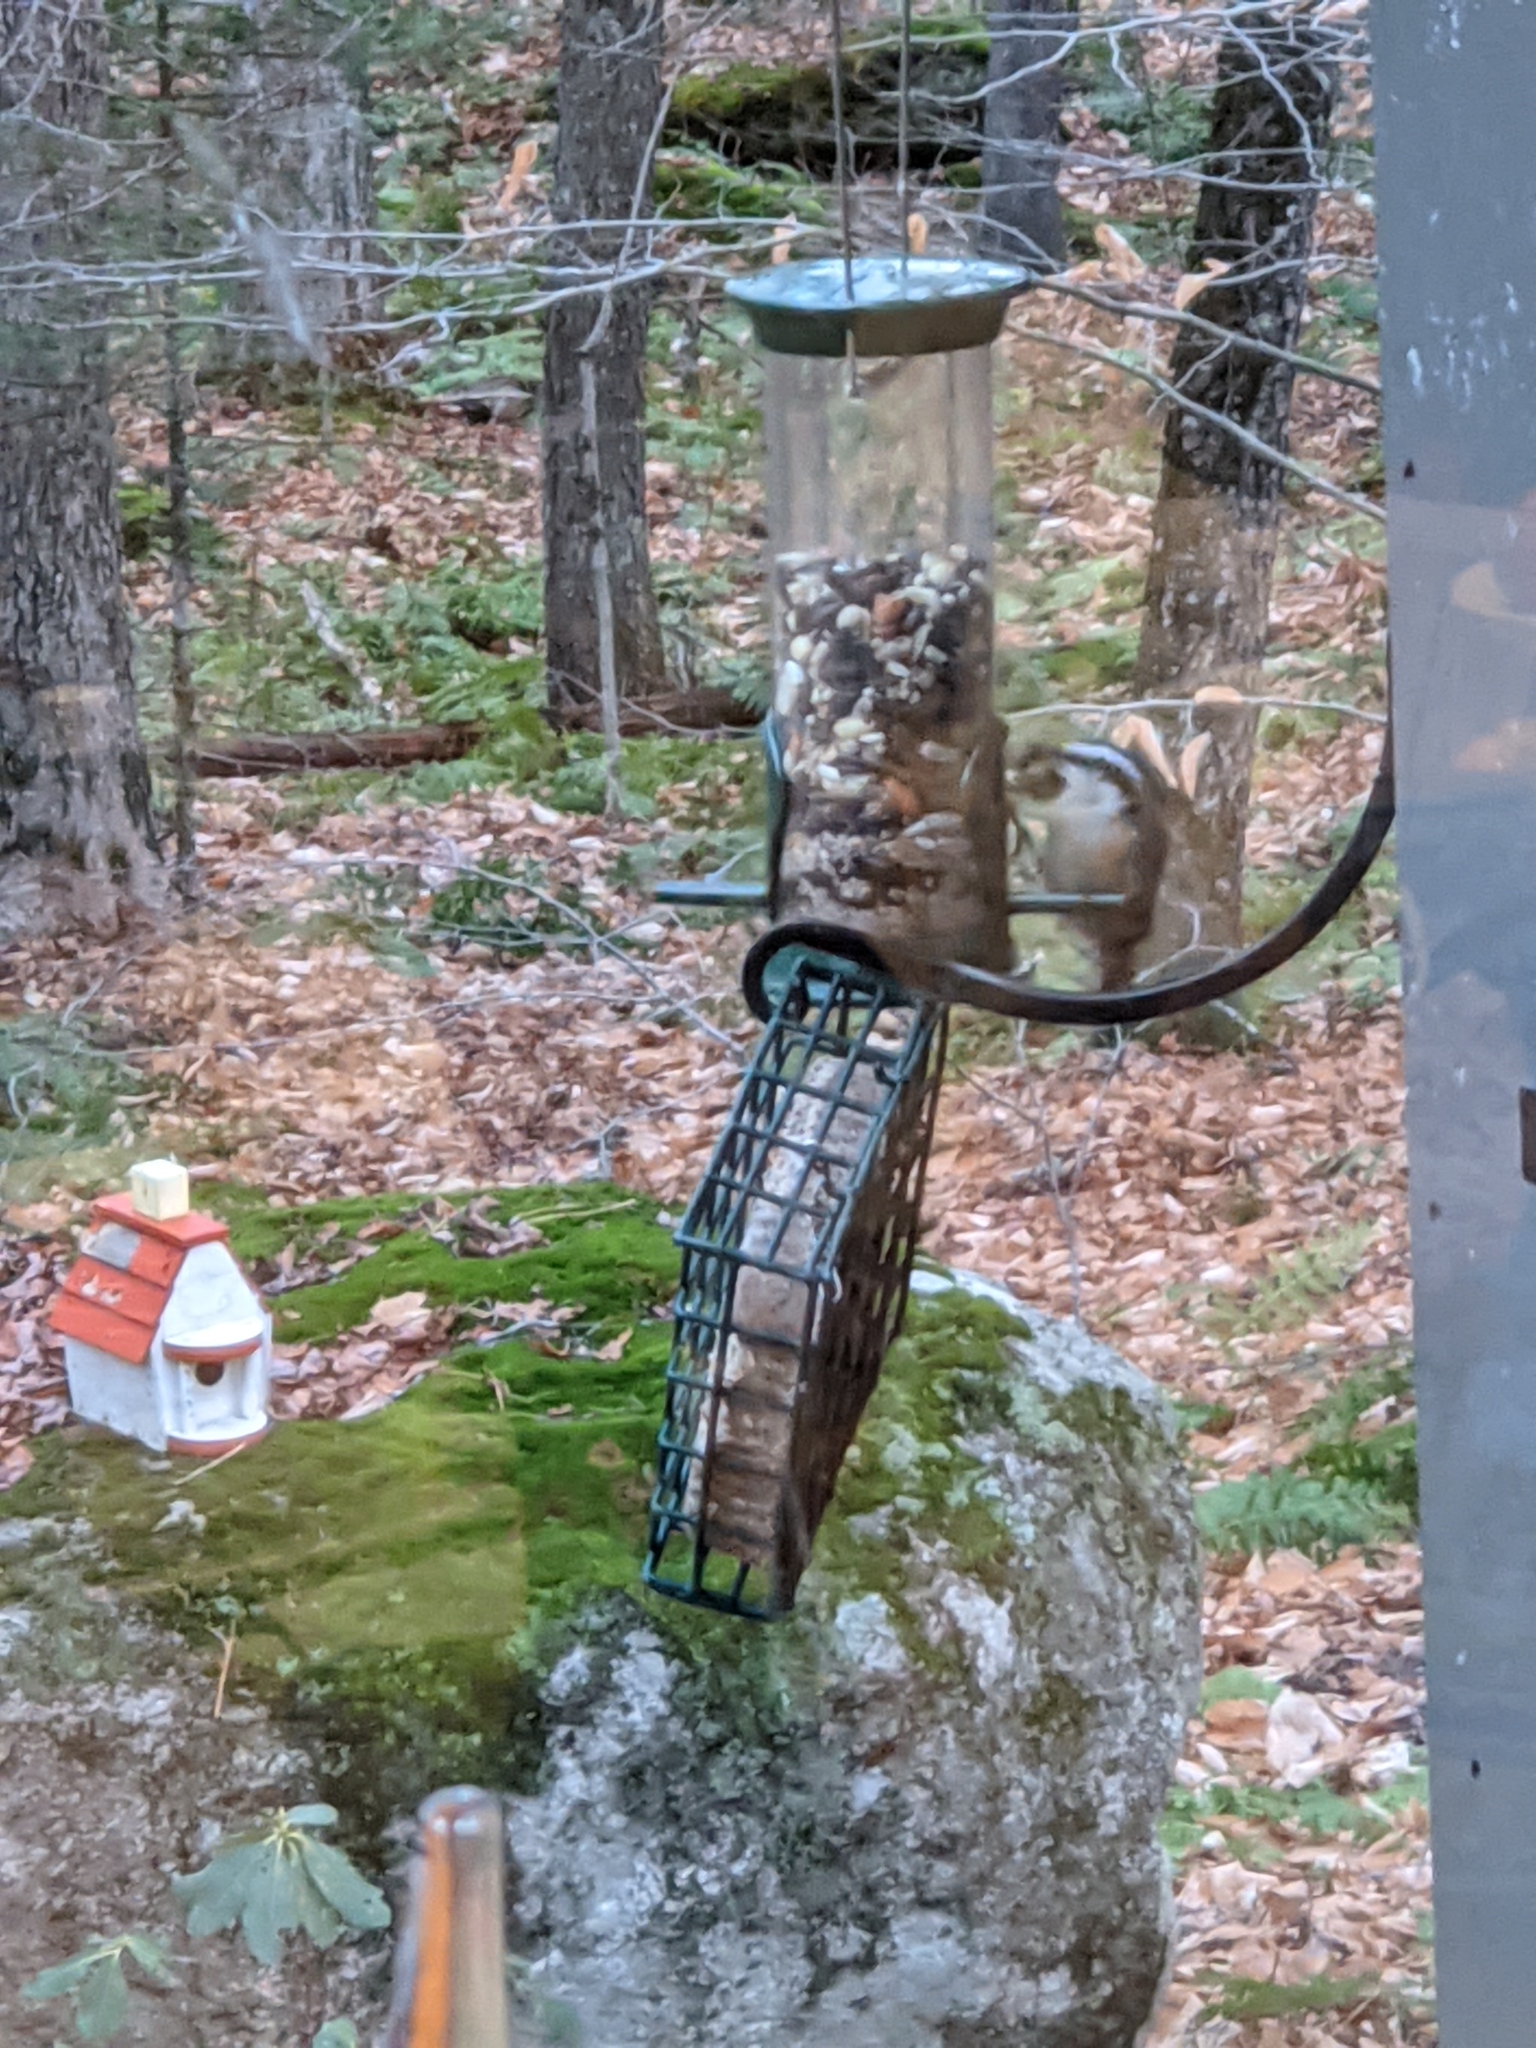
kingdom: Animalia
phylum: Chordata
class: Aves
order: Passeriformes
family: Sittidae
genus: Sitta
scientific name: Sitta canadensis
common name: Red-breasted nuthatch
